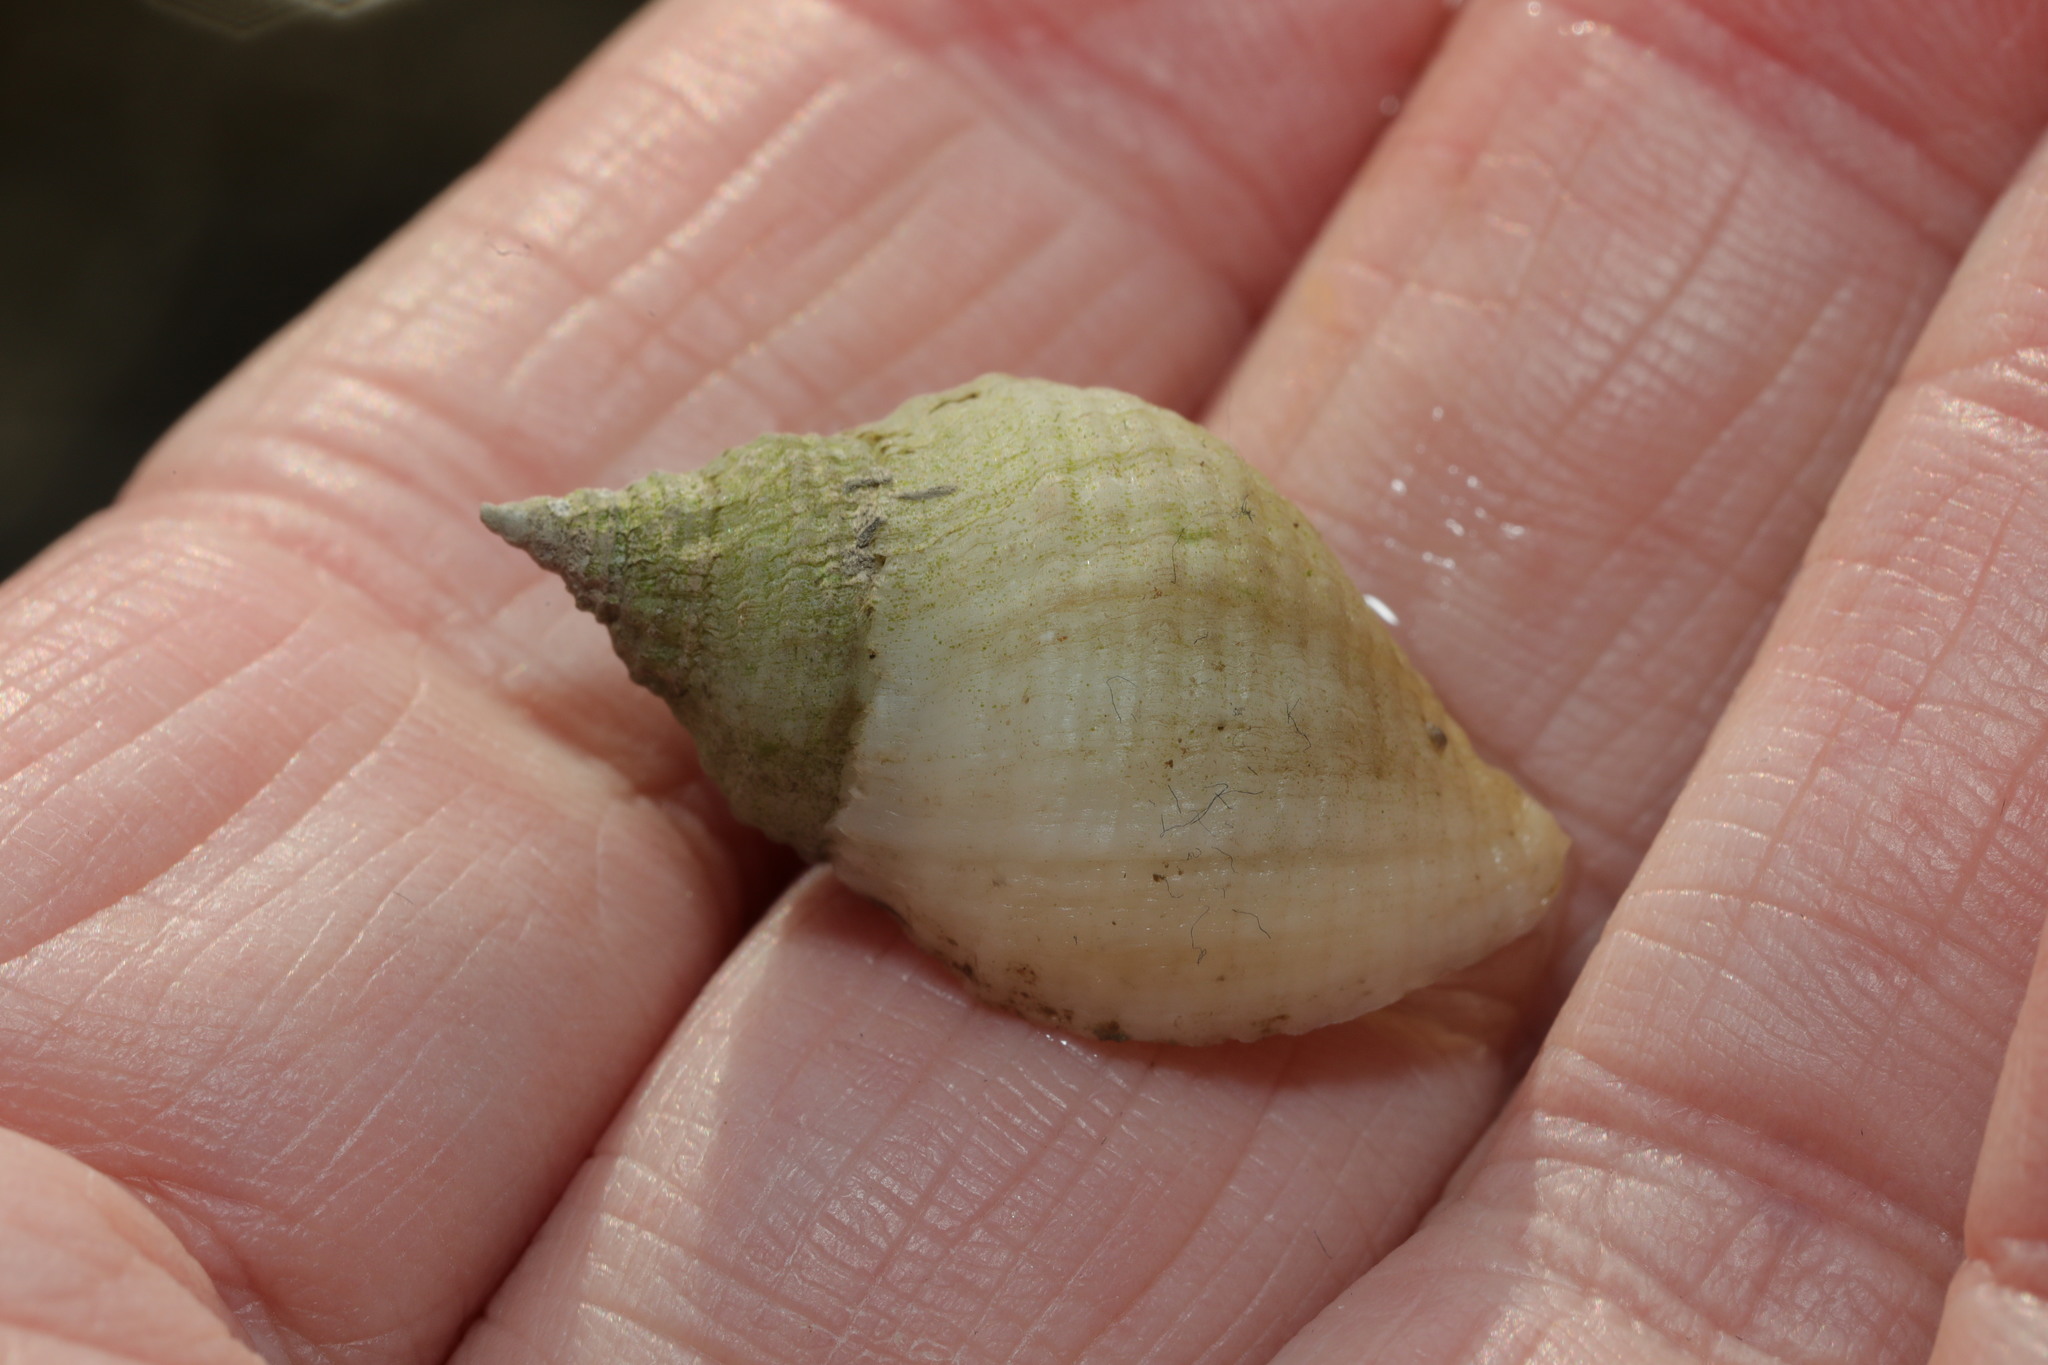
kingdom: Animalia
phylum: Mollusca
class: Gastropoda
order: Neogastropoda
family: Muricidae
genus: Nucella
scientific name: Nucella lapillus
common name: Dog whelk
